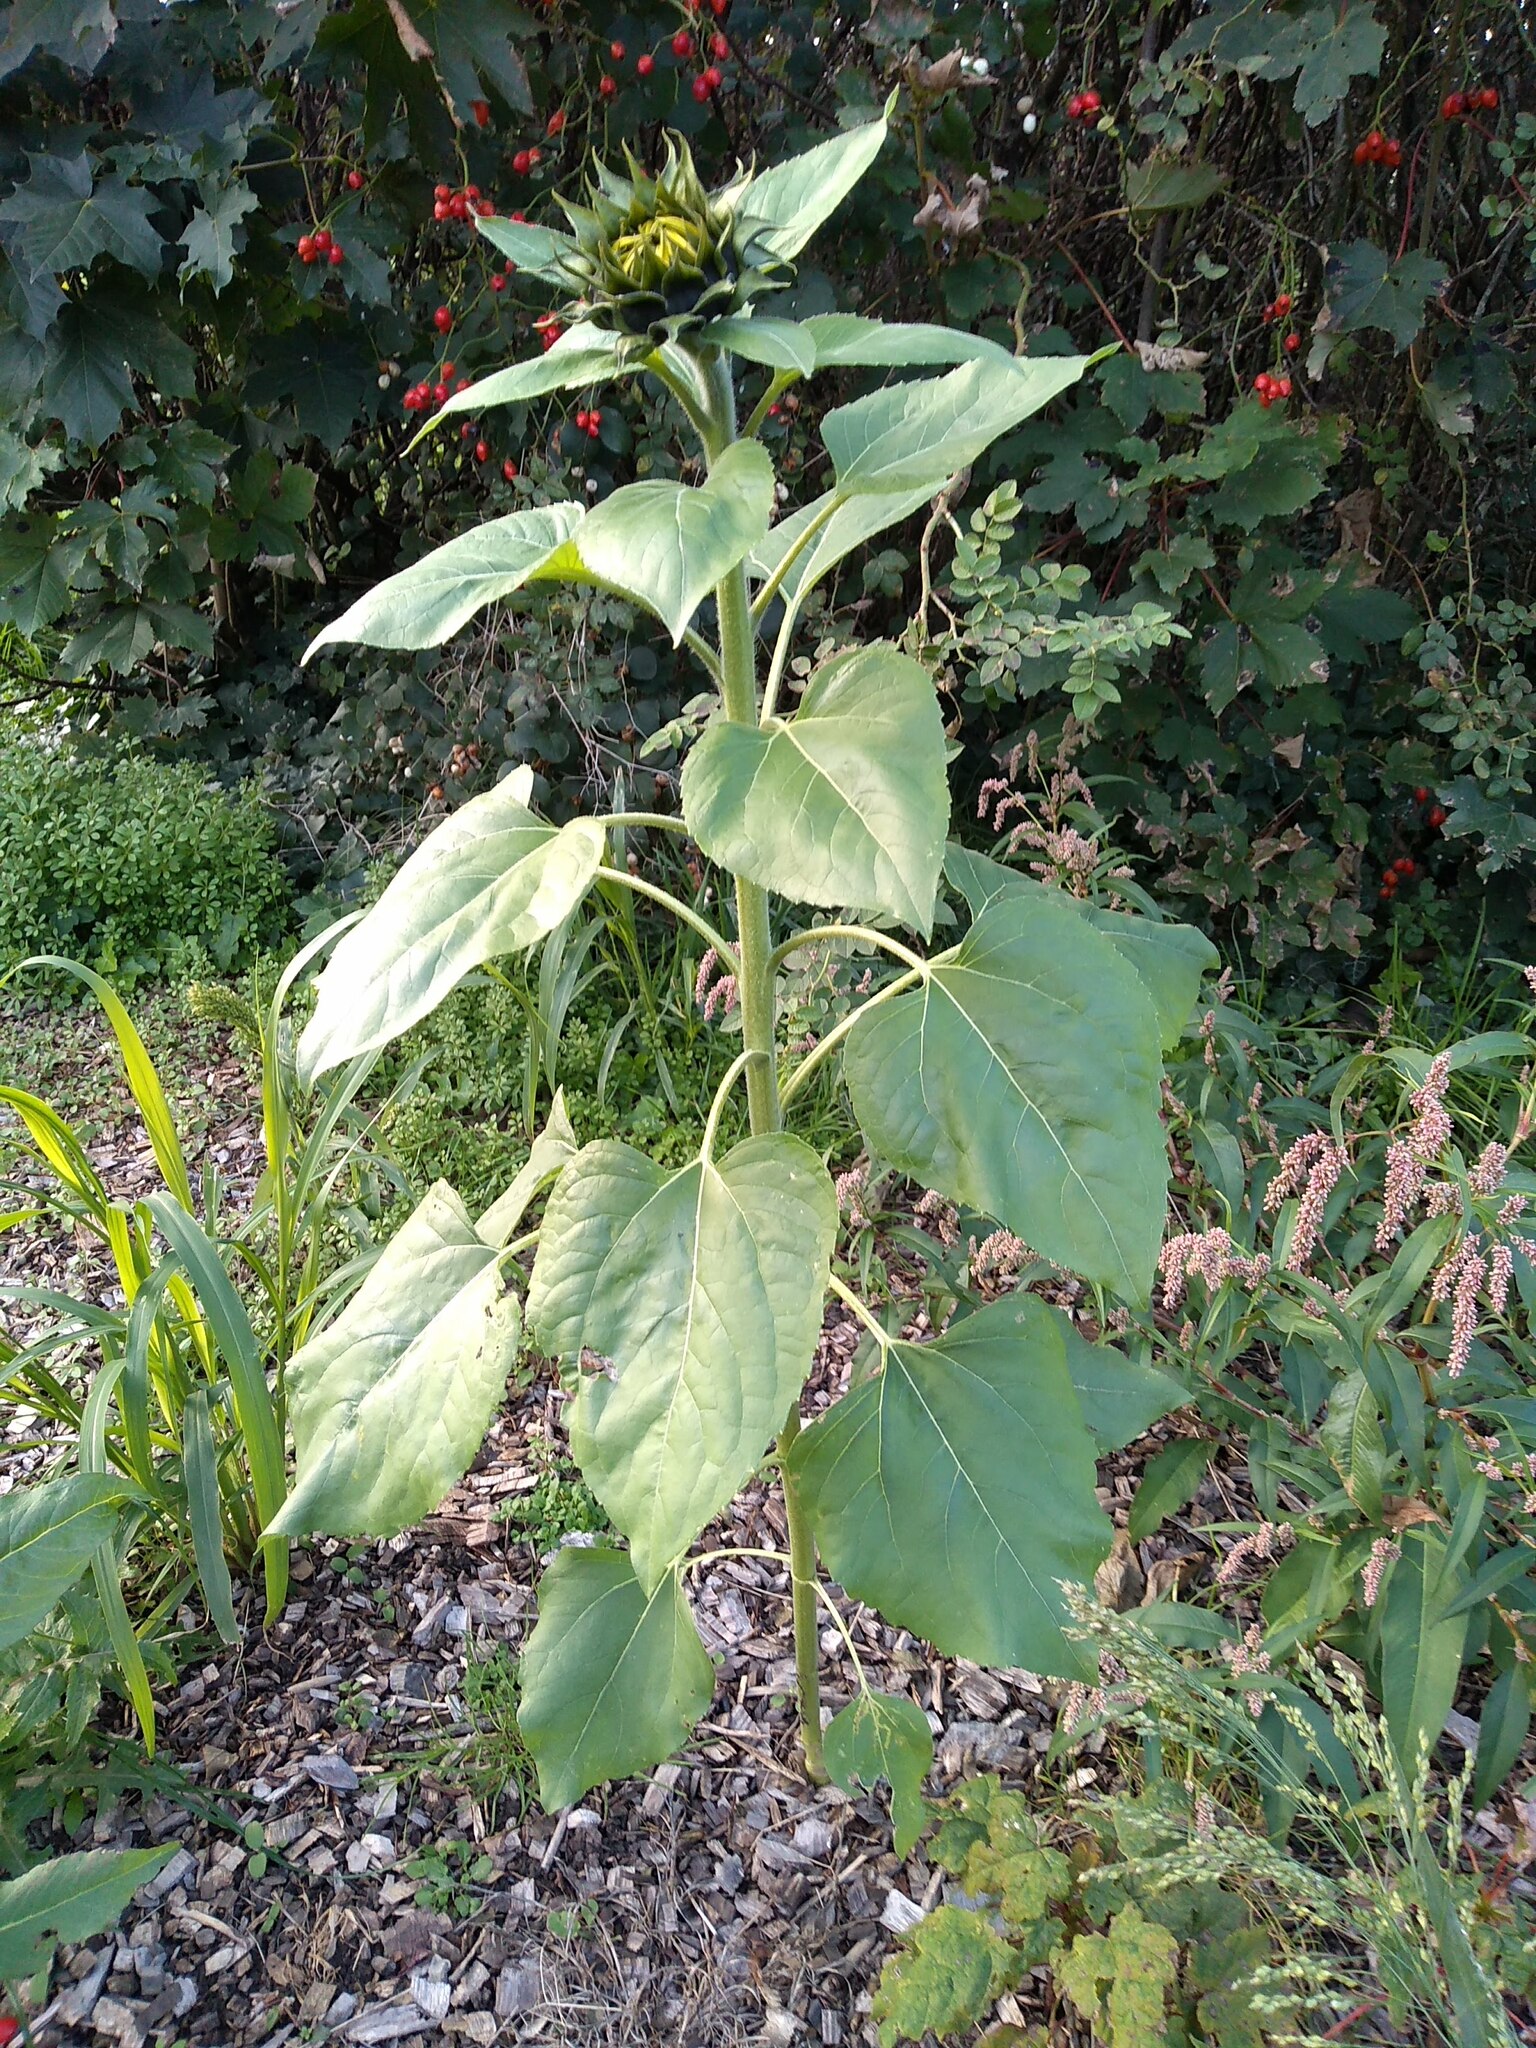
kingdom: Plantae
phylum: Tracheophyta
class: Magnoliopsida
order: Asterales
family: Asteraceae
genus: Helianthus
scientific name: Helianthus annuus
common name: Sunflower
